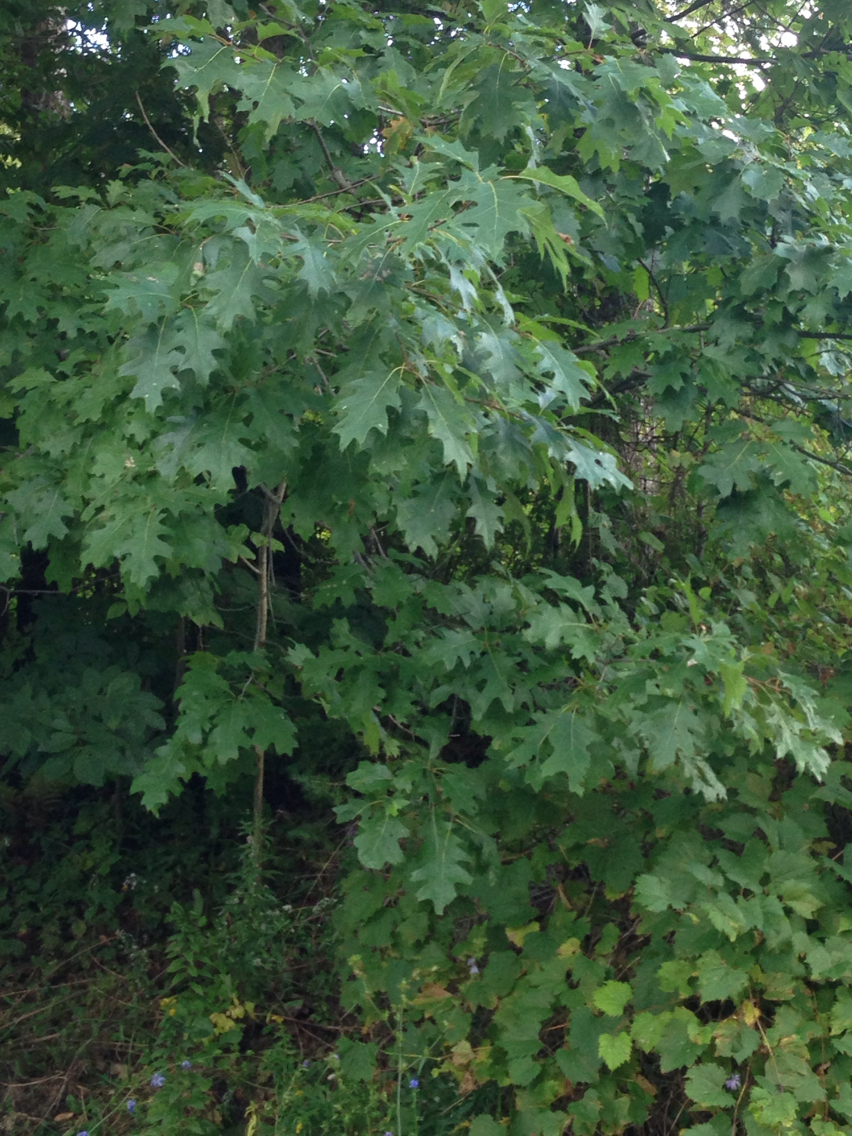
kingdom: Plantae
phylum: Tracheophyta
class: Magnoliopsida
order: Fagales
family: Fagaceae
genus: Quercus
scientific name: Quercus rubra
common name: Red oak
